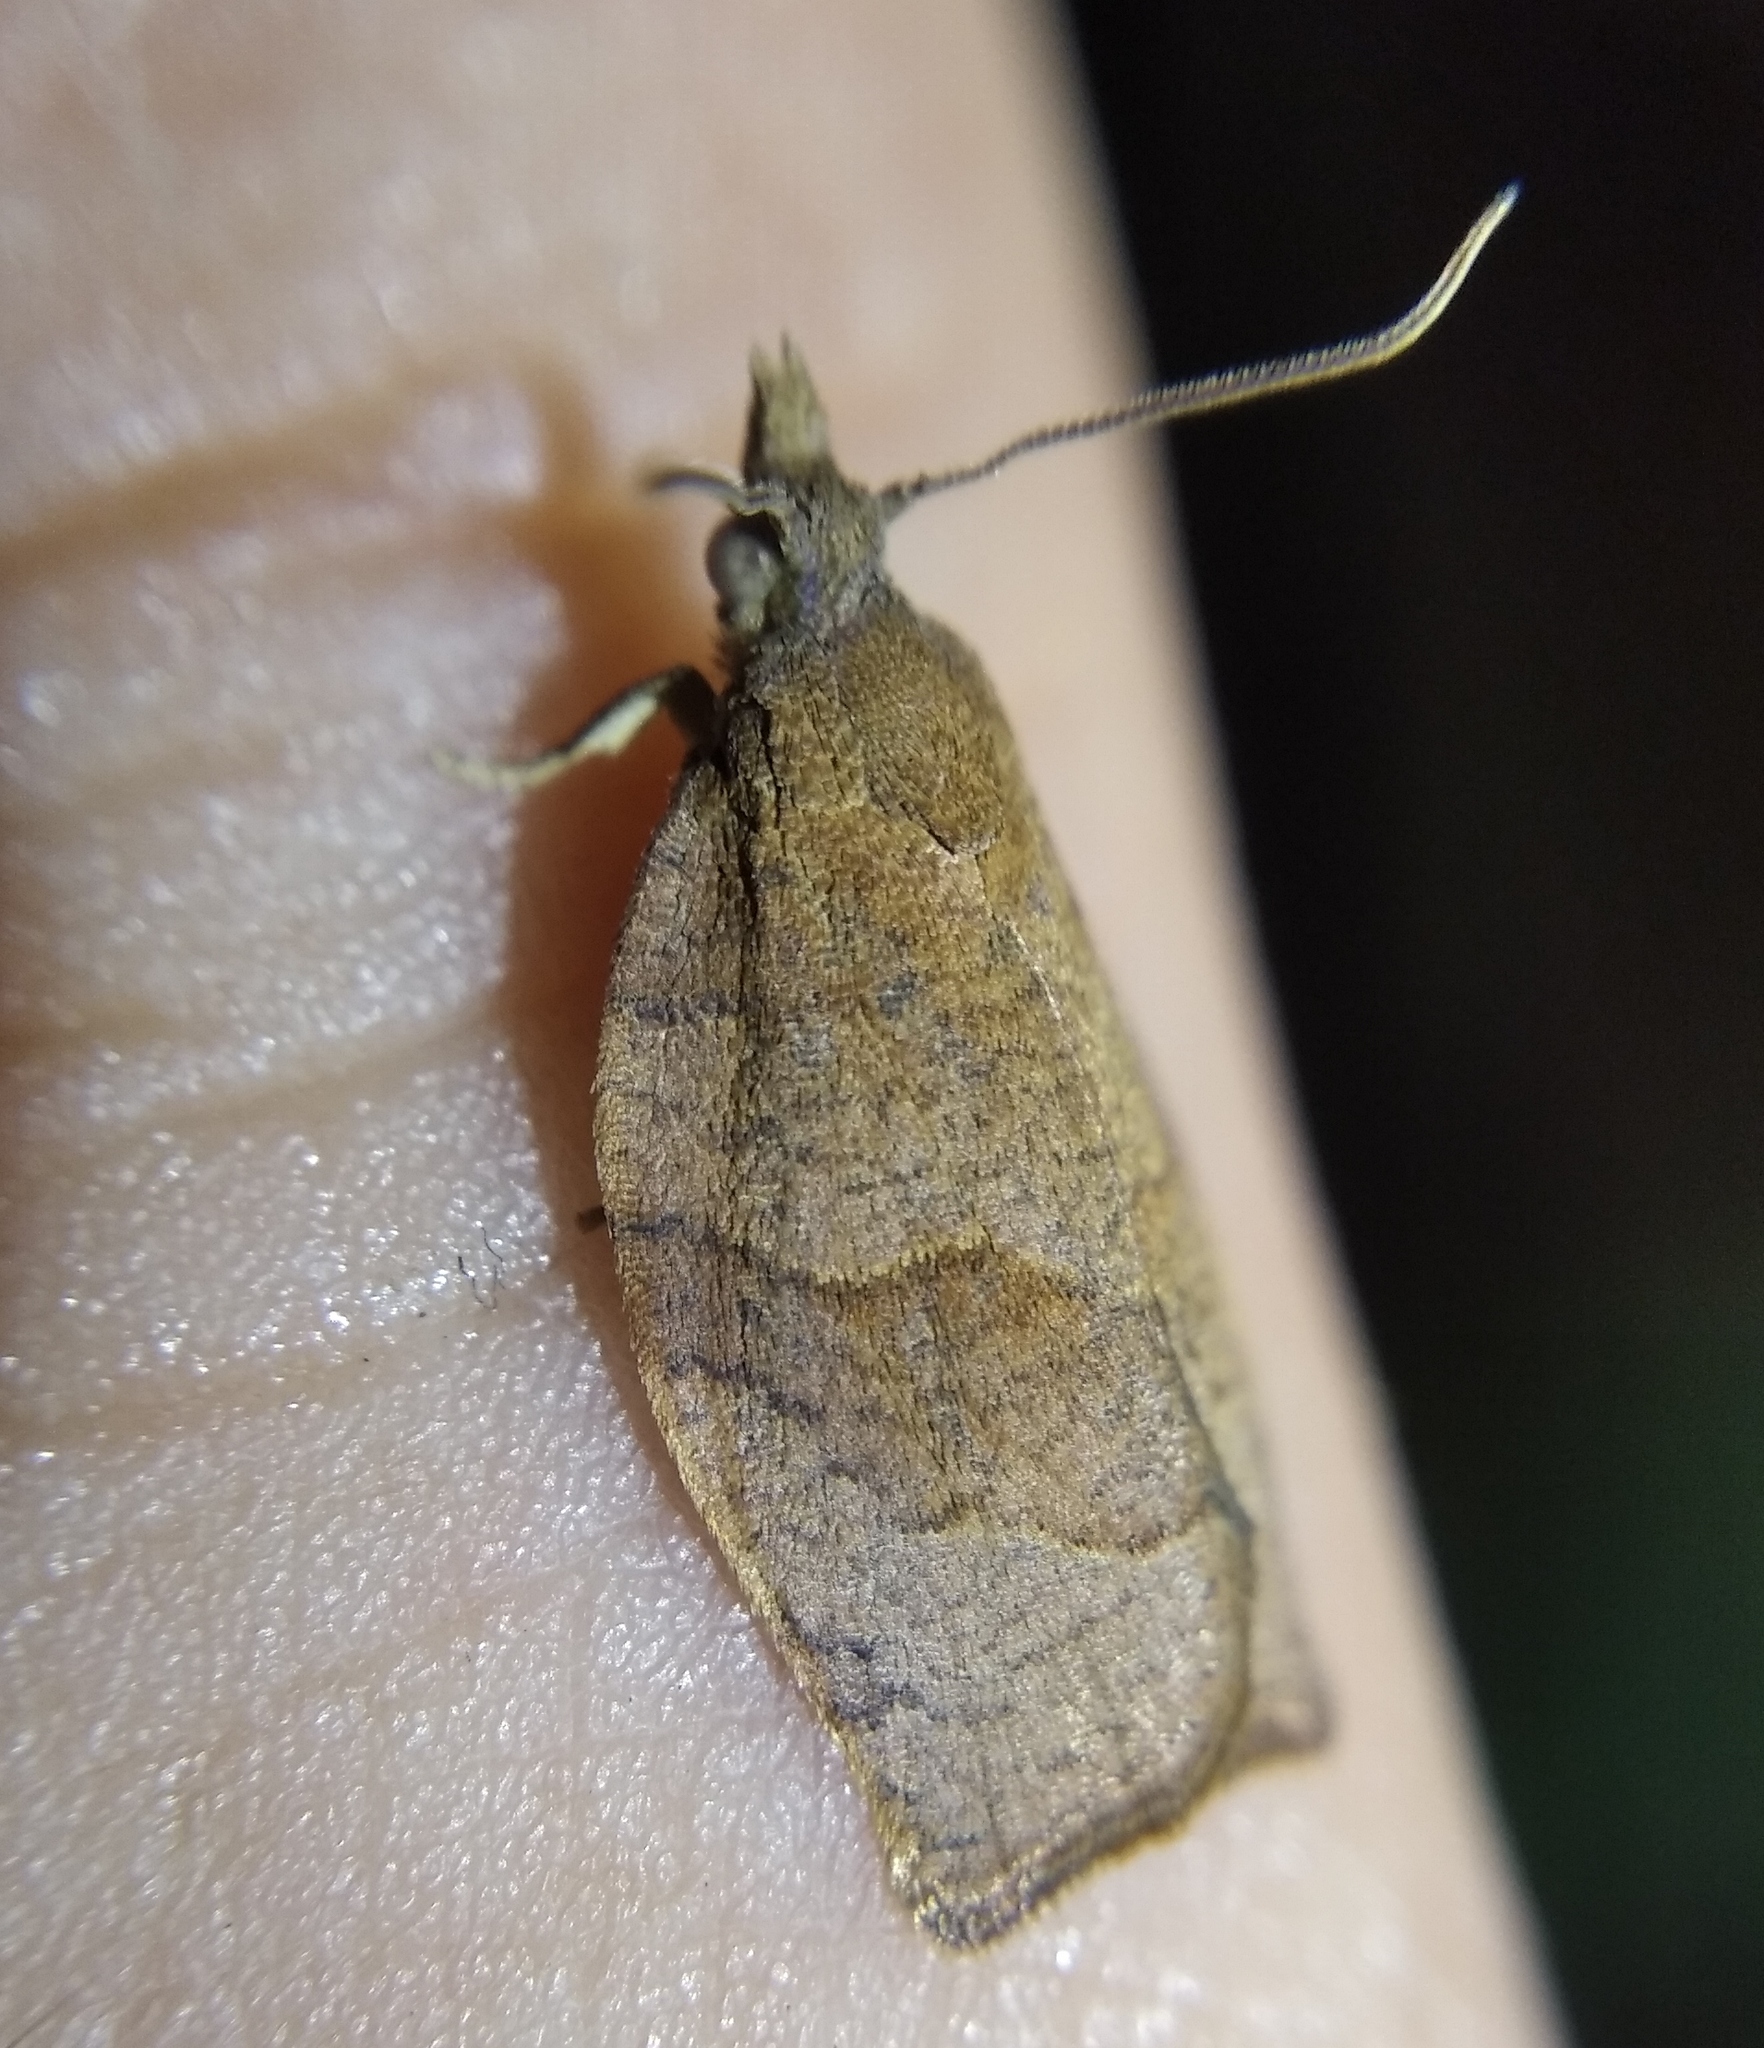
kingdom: Animalia
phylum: Arthropoda
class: Insecta
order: Lepidoptera
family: Tortricidae
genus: Pandemis
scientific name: Pandemis heparana
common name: Dark fruit-tree tortrix
